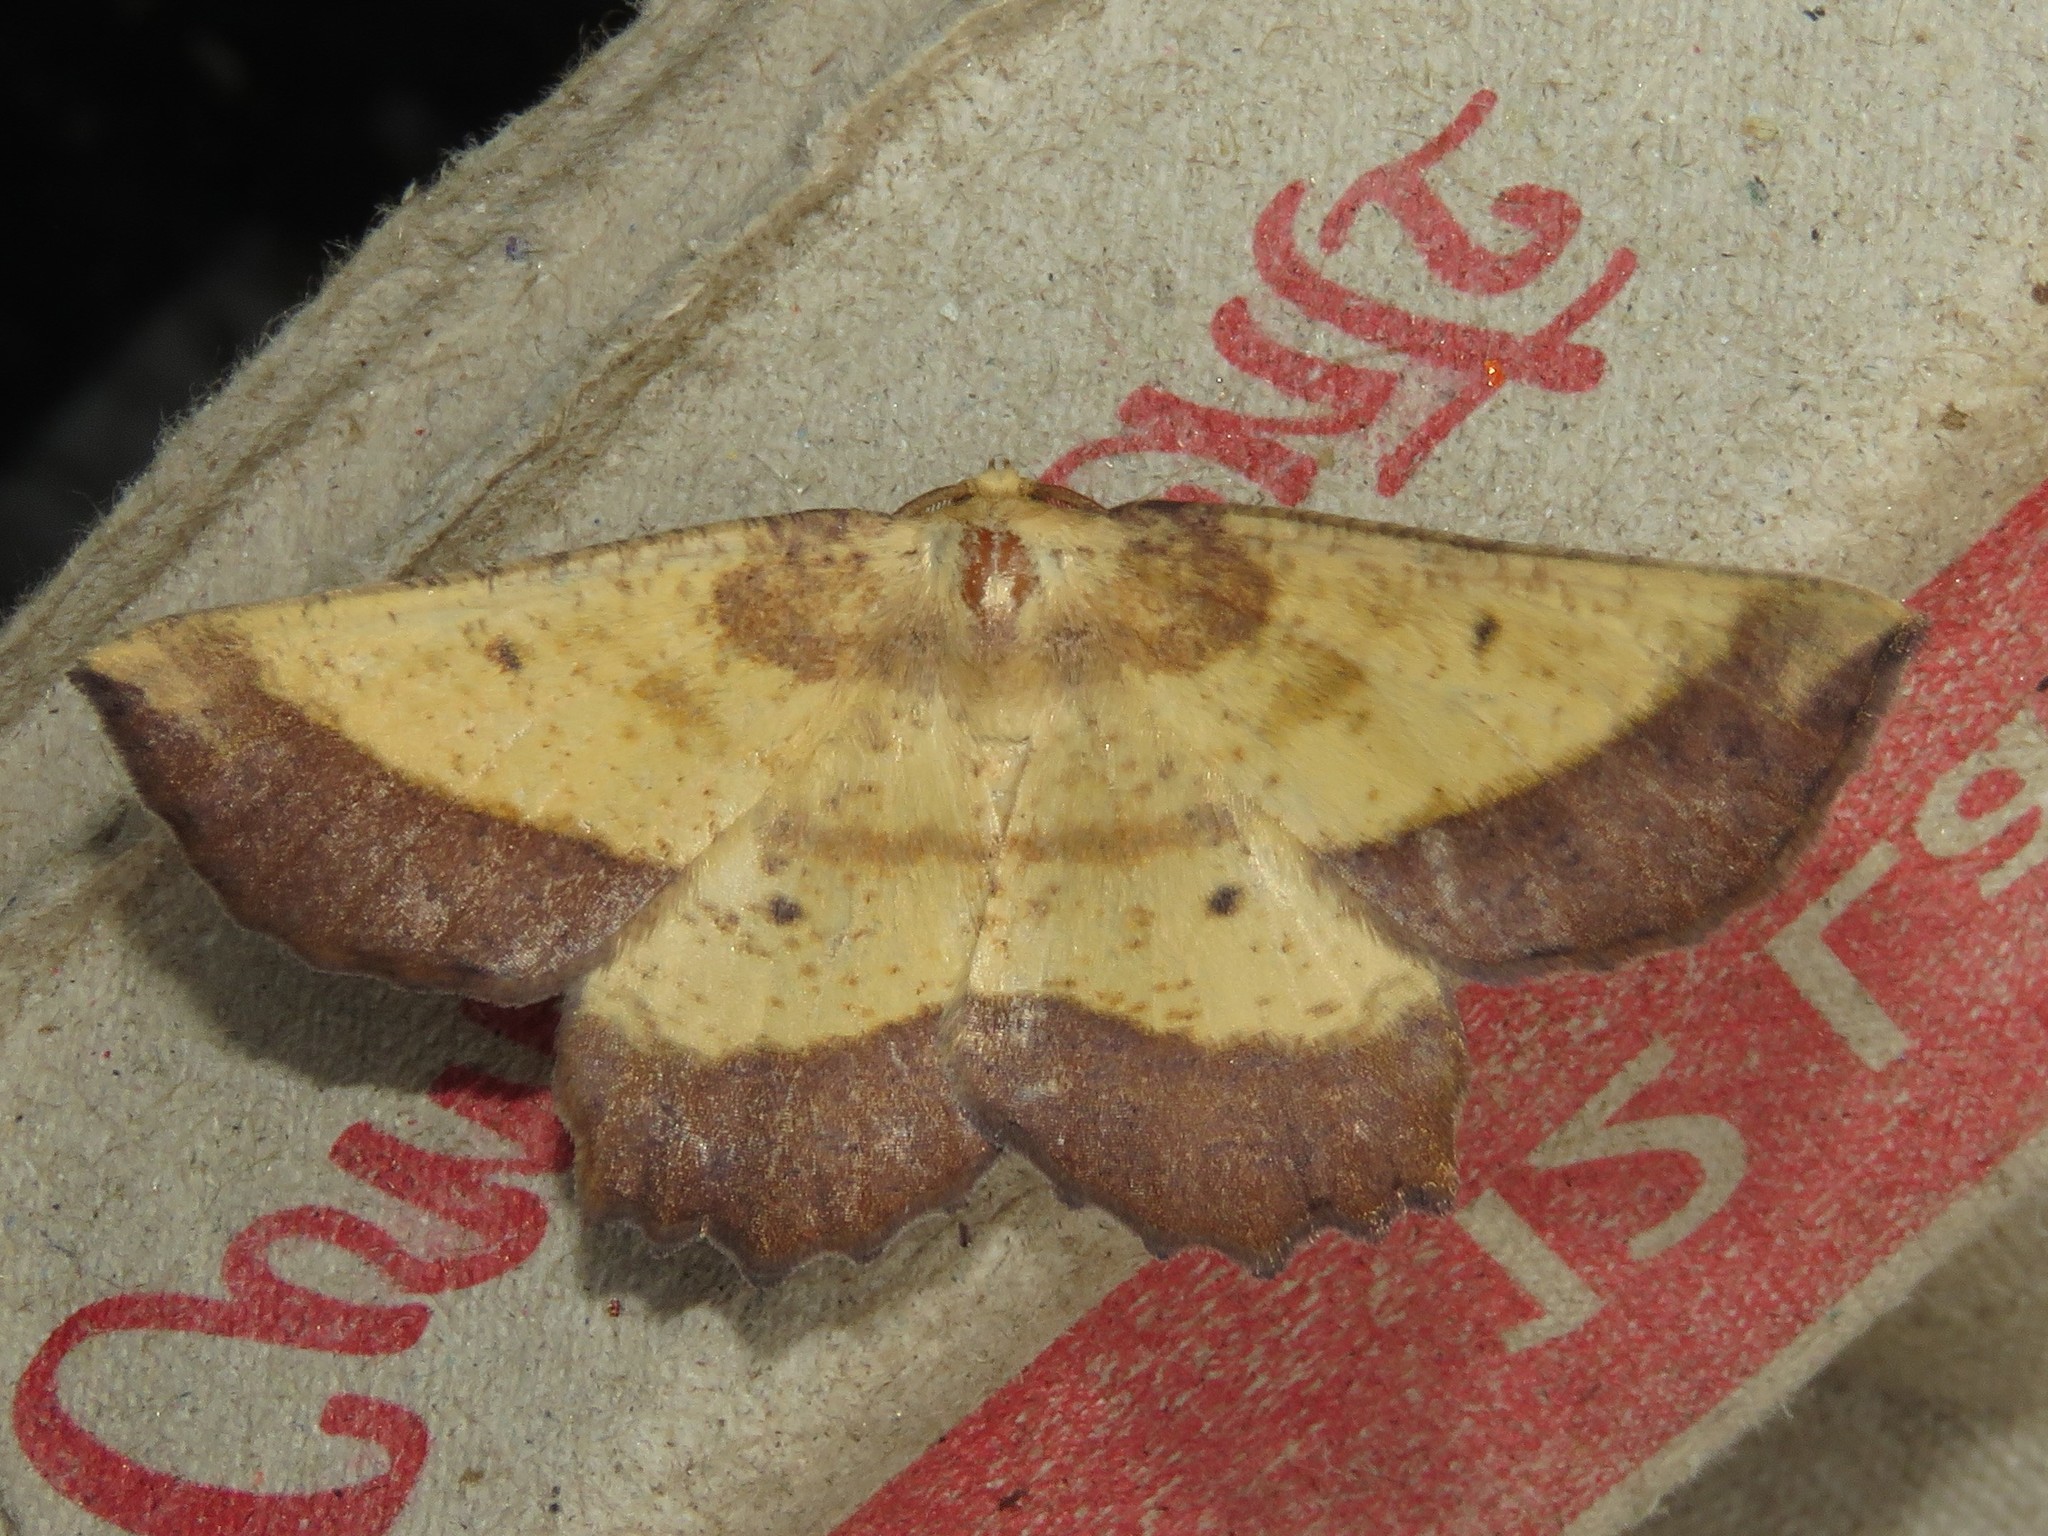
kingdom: Animalia
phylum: Arthropoda
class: Insecta
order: Lepidoptera
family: Geometridae
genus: Euchlaena
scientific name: Euchlaena serrata
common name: Saw wing
